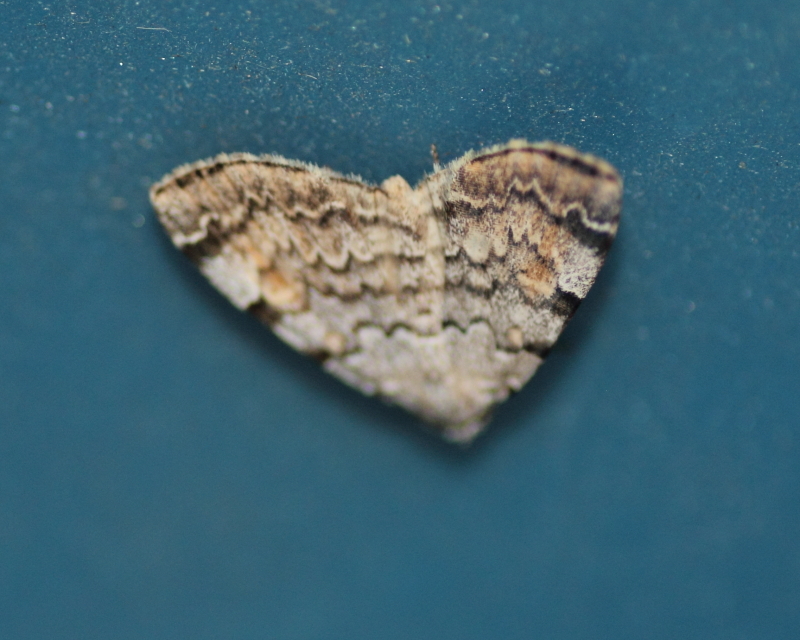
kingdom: Animalia
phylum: Arthropoda
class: Insecta
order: Lepidoptera
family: Erebidae
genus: Idia
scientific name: Idia americalis
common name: American idia moth
